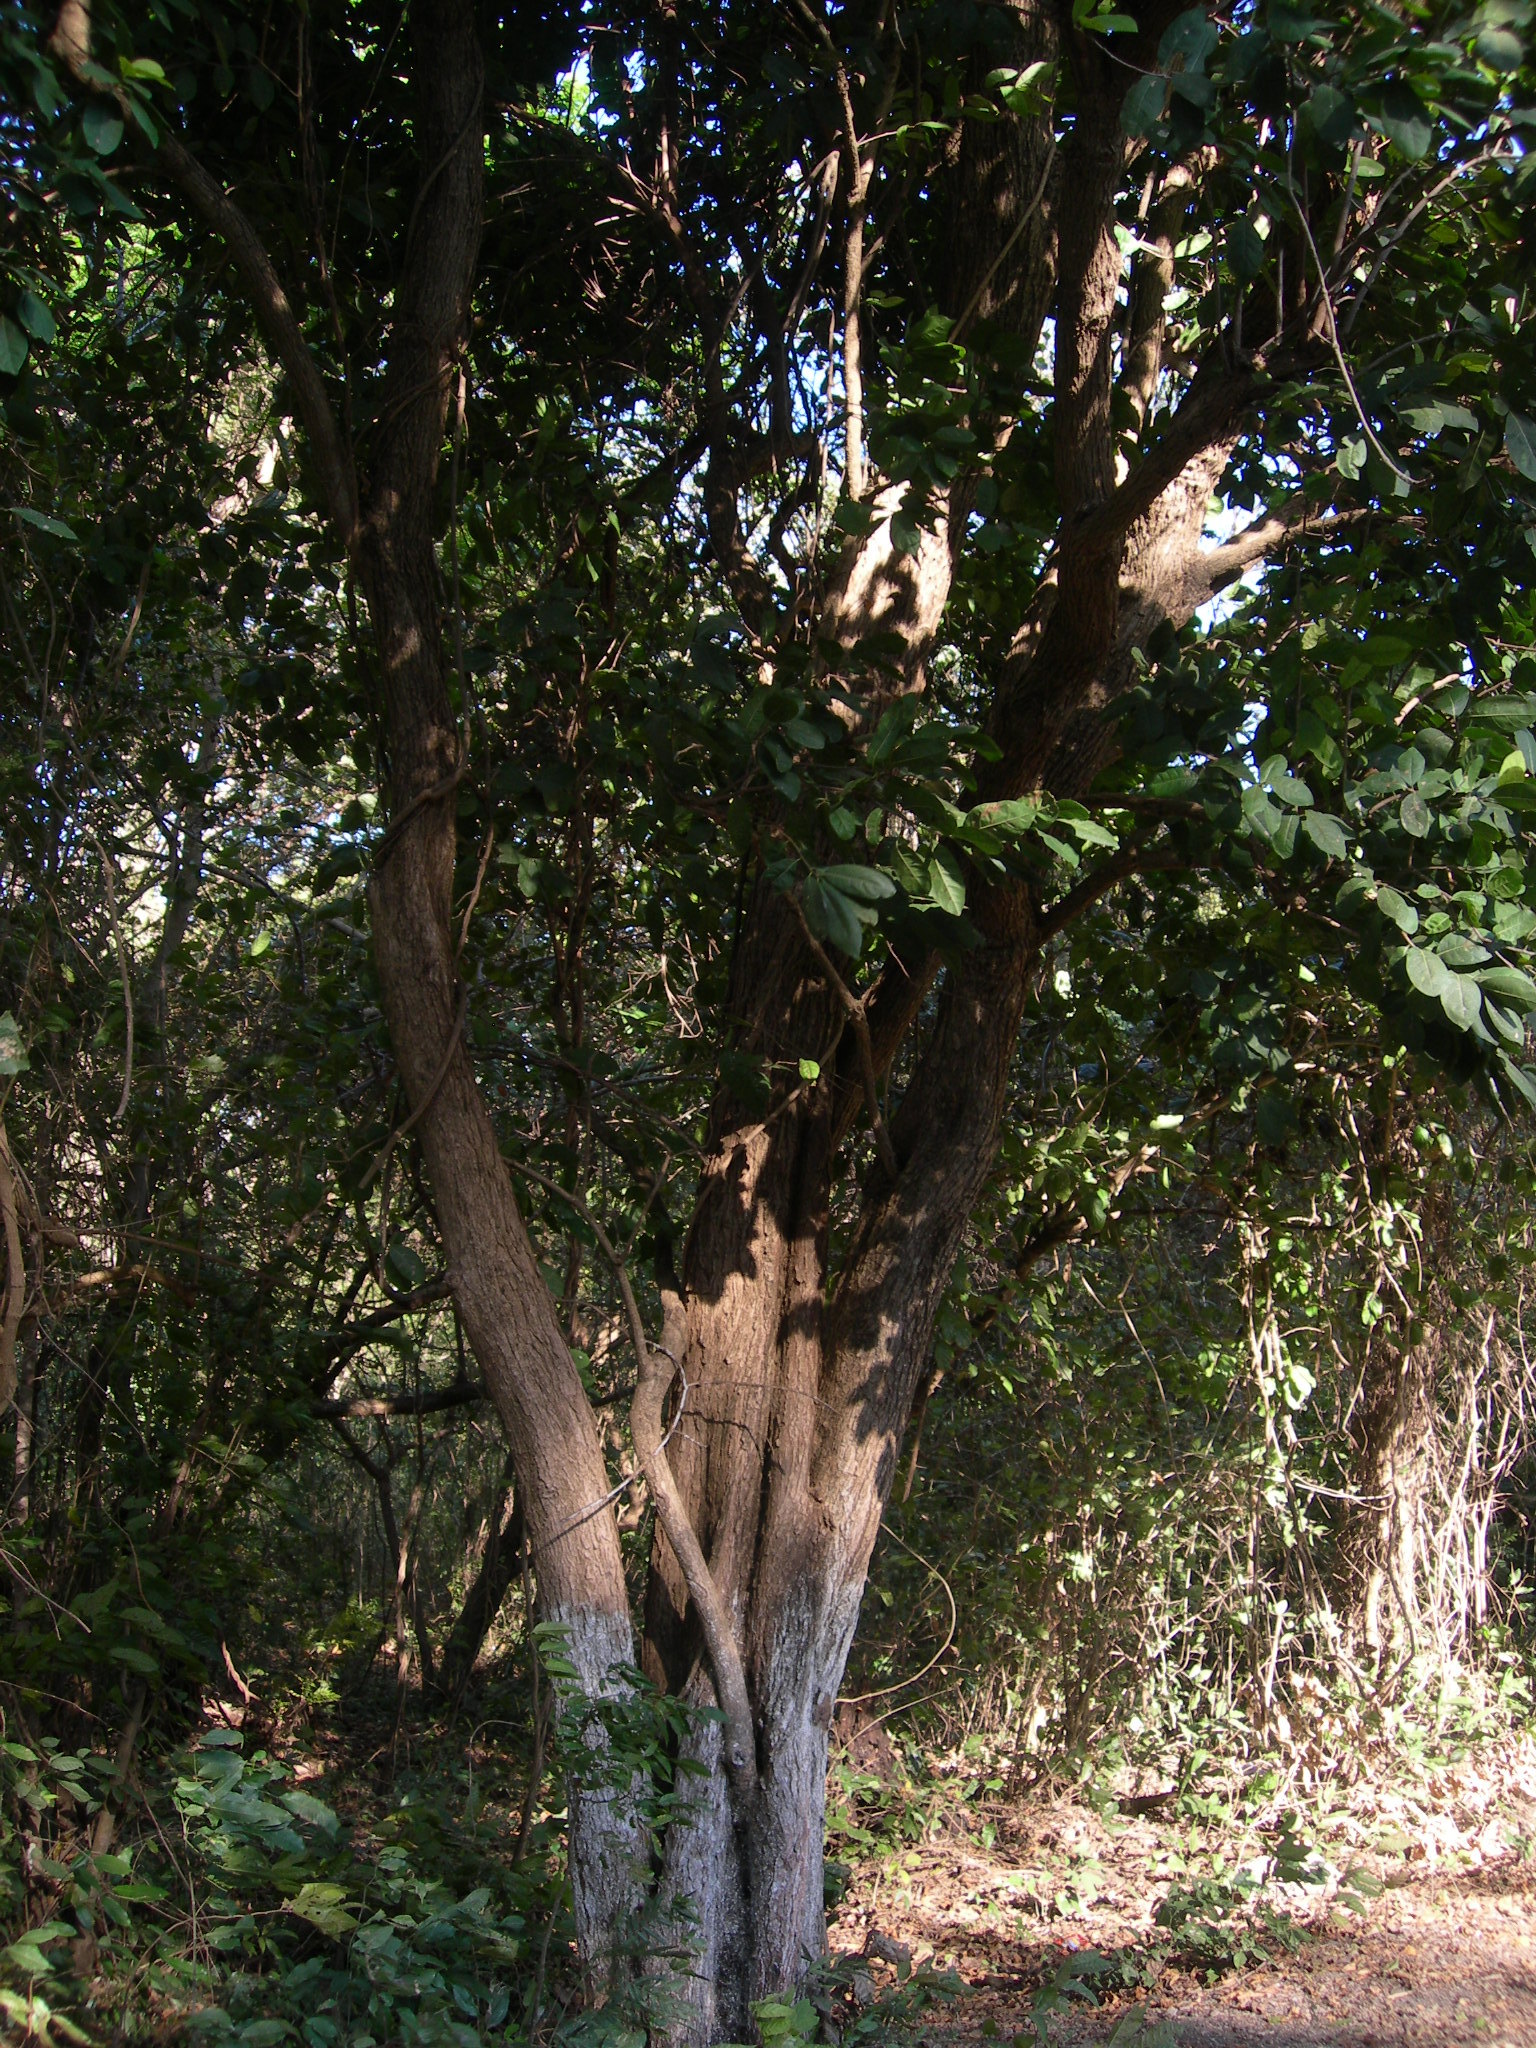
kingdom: Plantae
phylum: Tracheophyta
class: Magnoliopsida
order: Malpighiales
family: Chrysobalanaceae
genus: Microdesmia
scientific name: Microdesmia arborea
